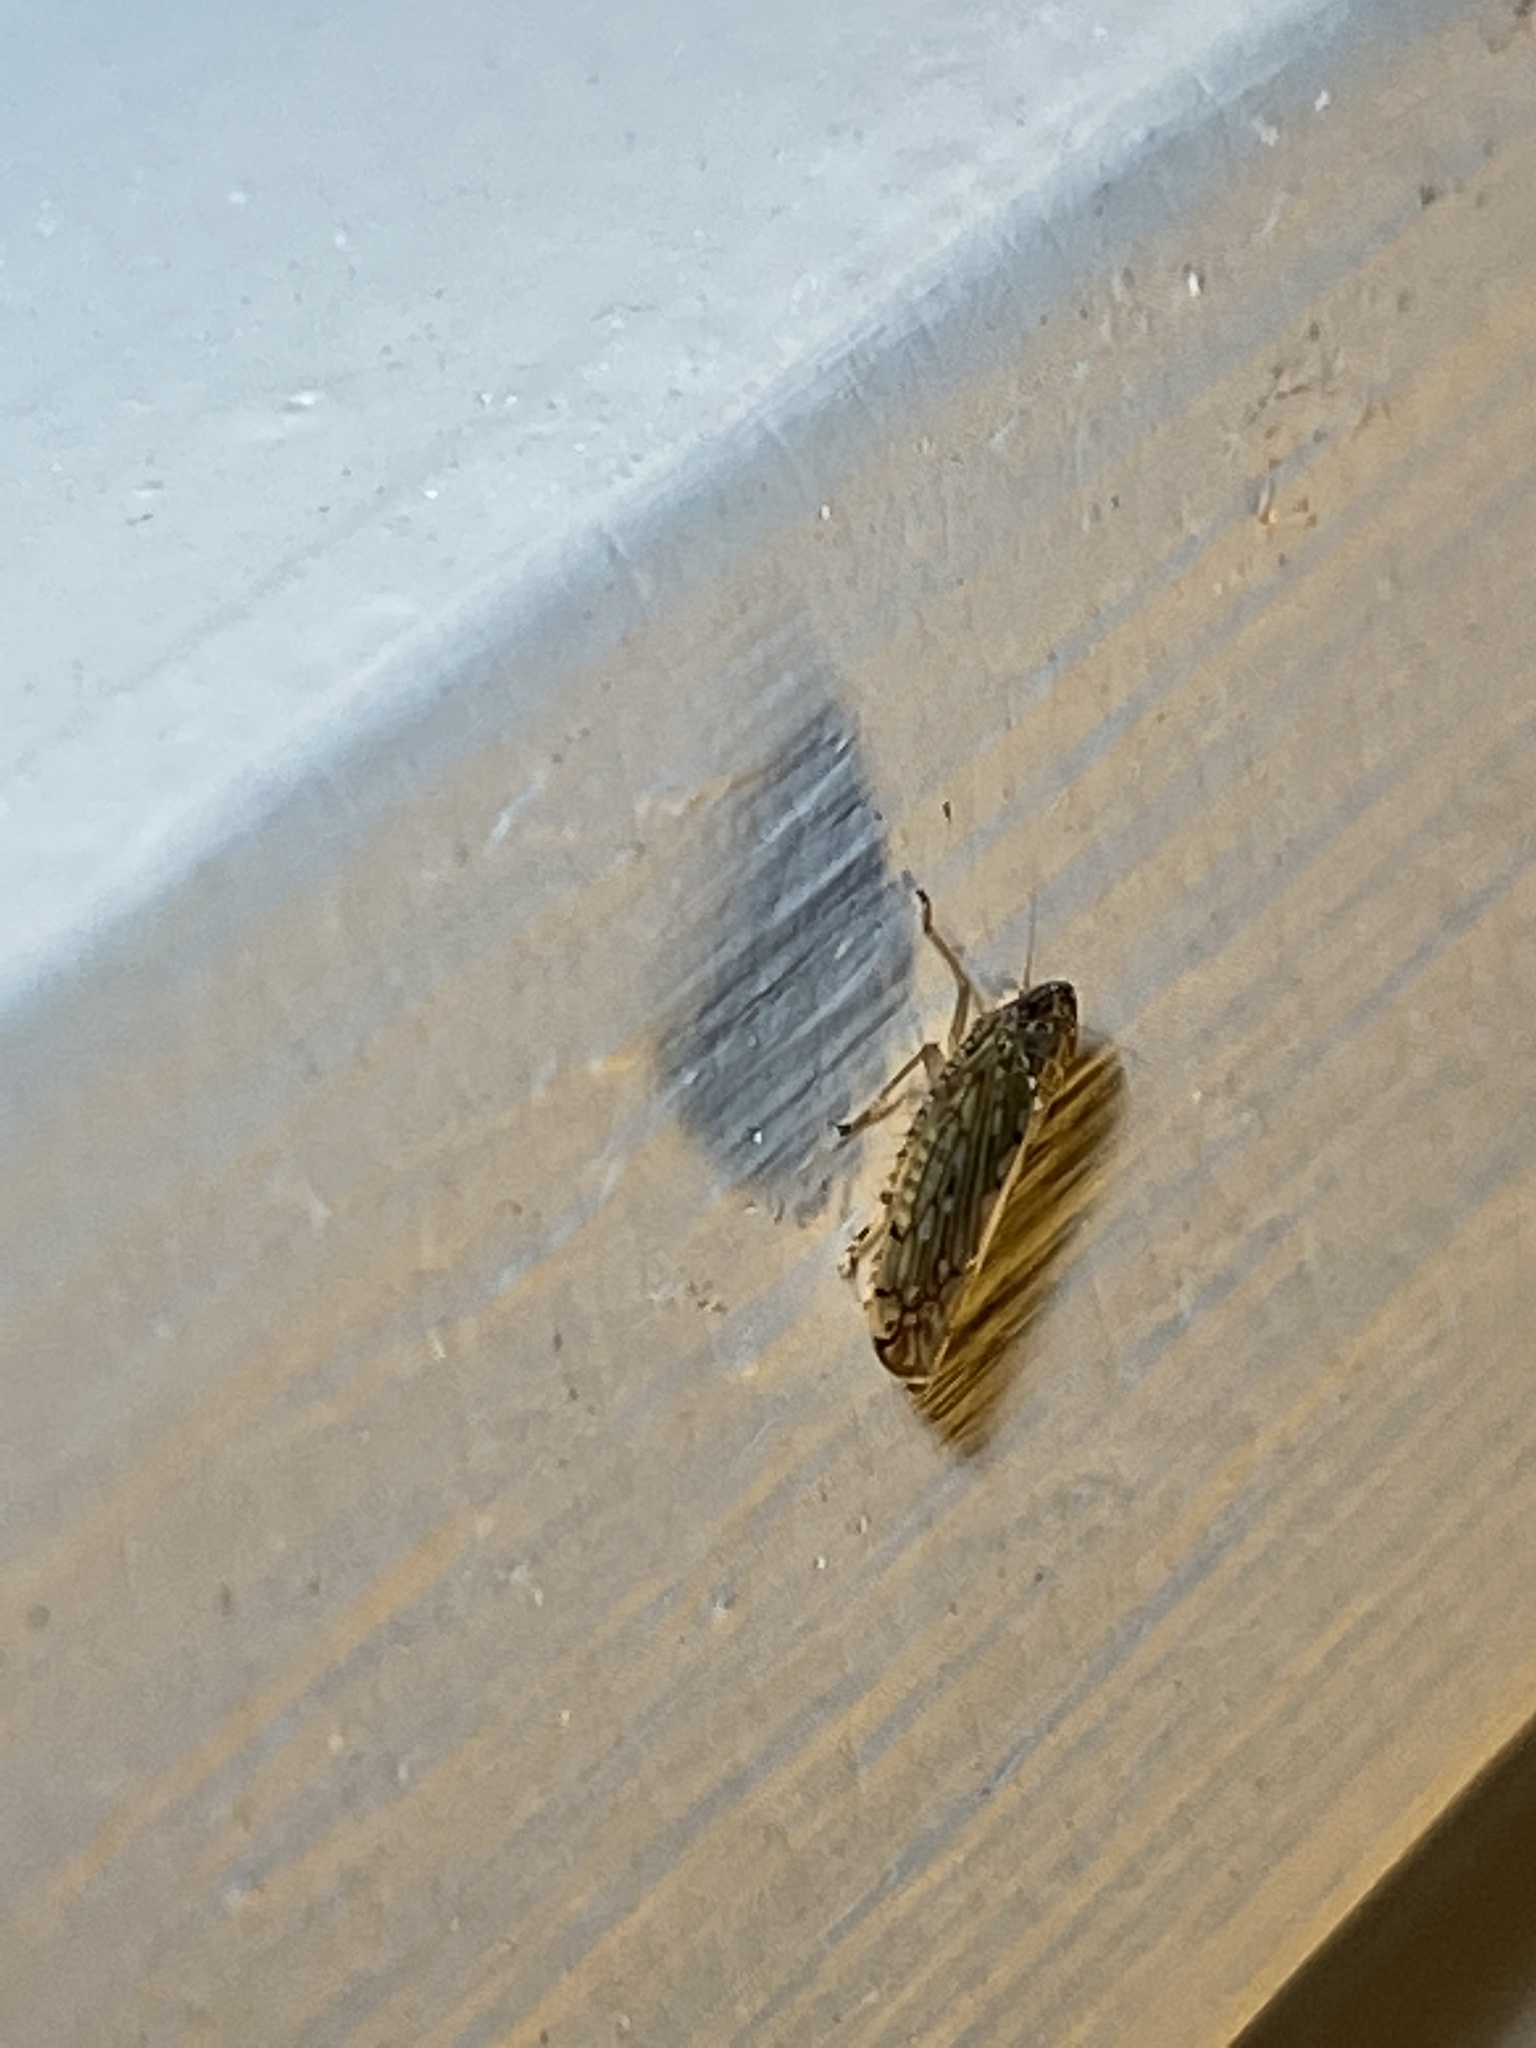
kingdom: Animalia
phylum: Arthropoda
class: Insecta
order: Hemiptera
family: Cicadellidae
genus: Osbornellus
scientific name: Osbornellus clarus
